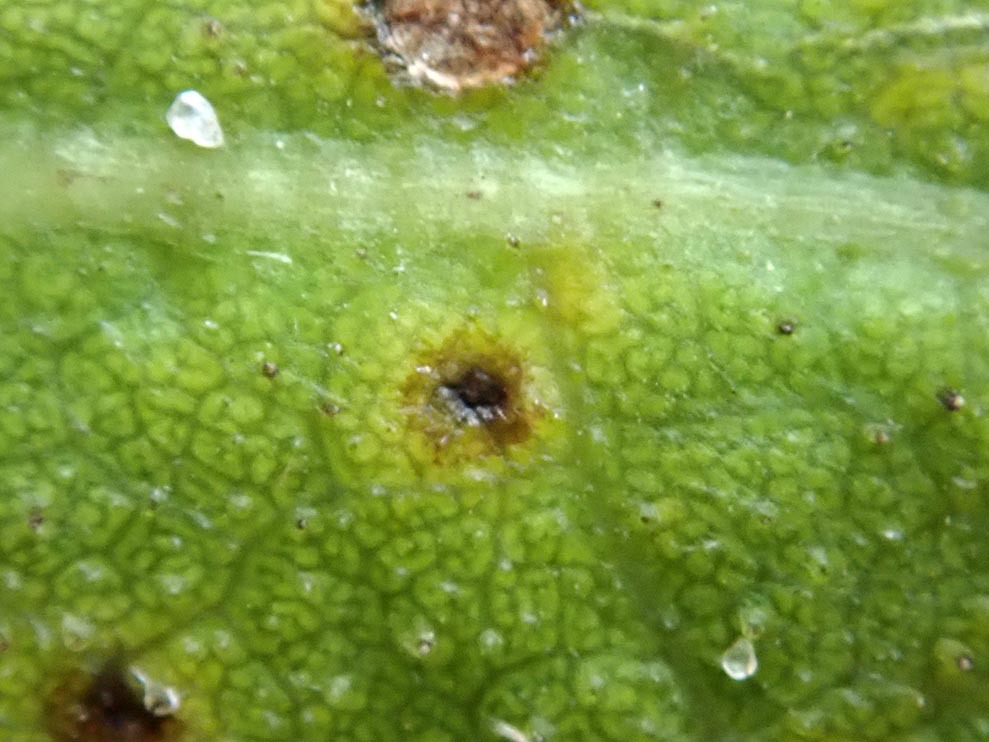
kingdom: Fungi
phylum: Basidiomycota
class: Pucciniomycetes
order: Pucciniales
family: Pucciniaceae
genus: Puccinia
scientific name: Puccinia embergeriae
